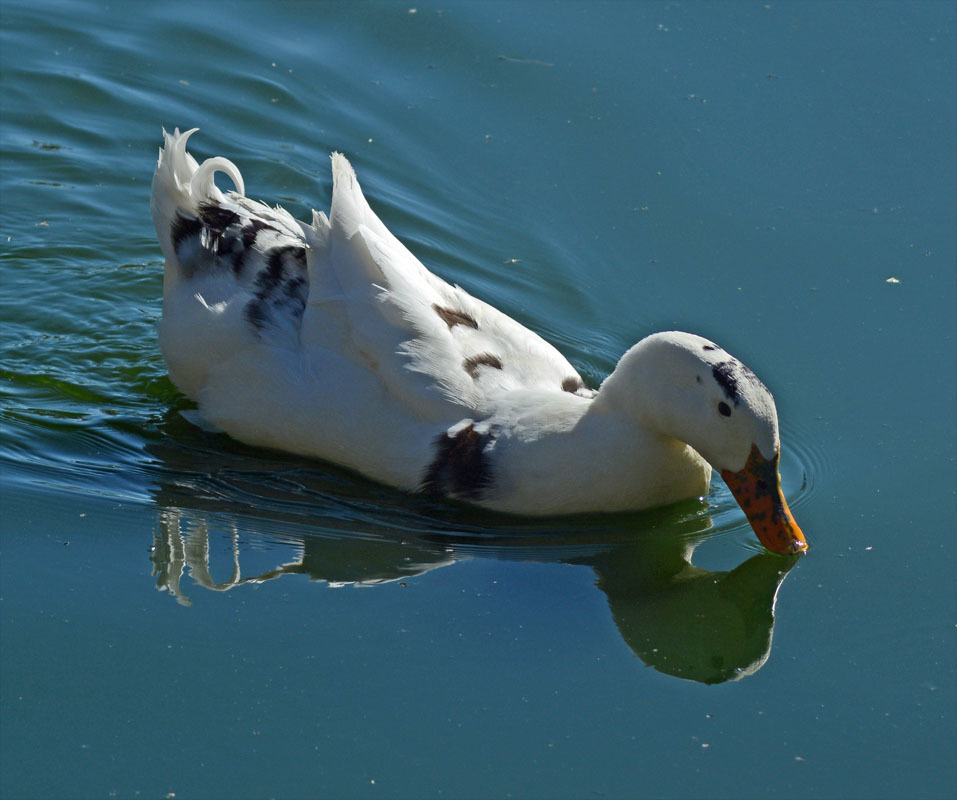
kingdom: Animalia
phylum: Chordata
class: Aves
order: Anseriformes
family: Anatidae
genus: Anas
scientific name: Anas platyrhynchos
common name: Mallard
